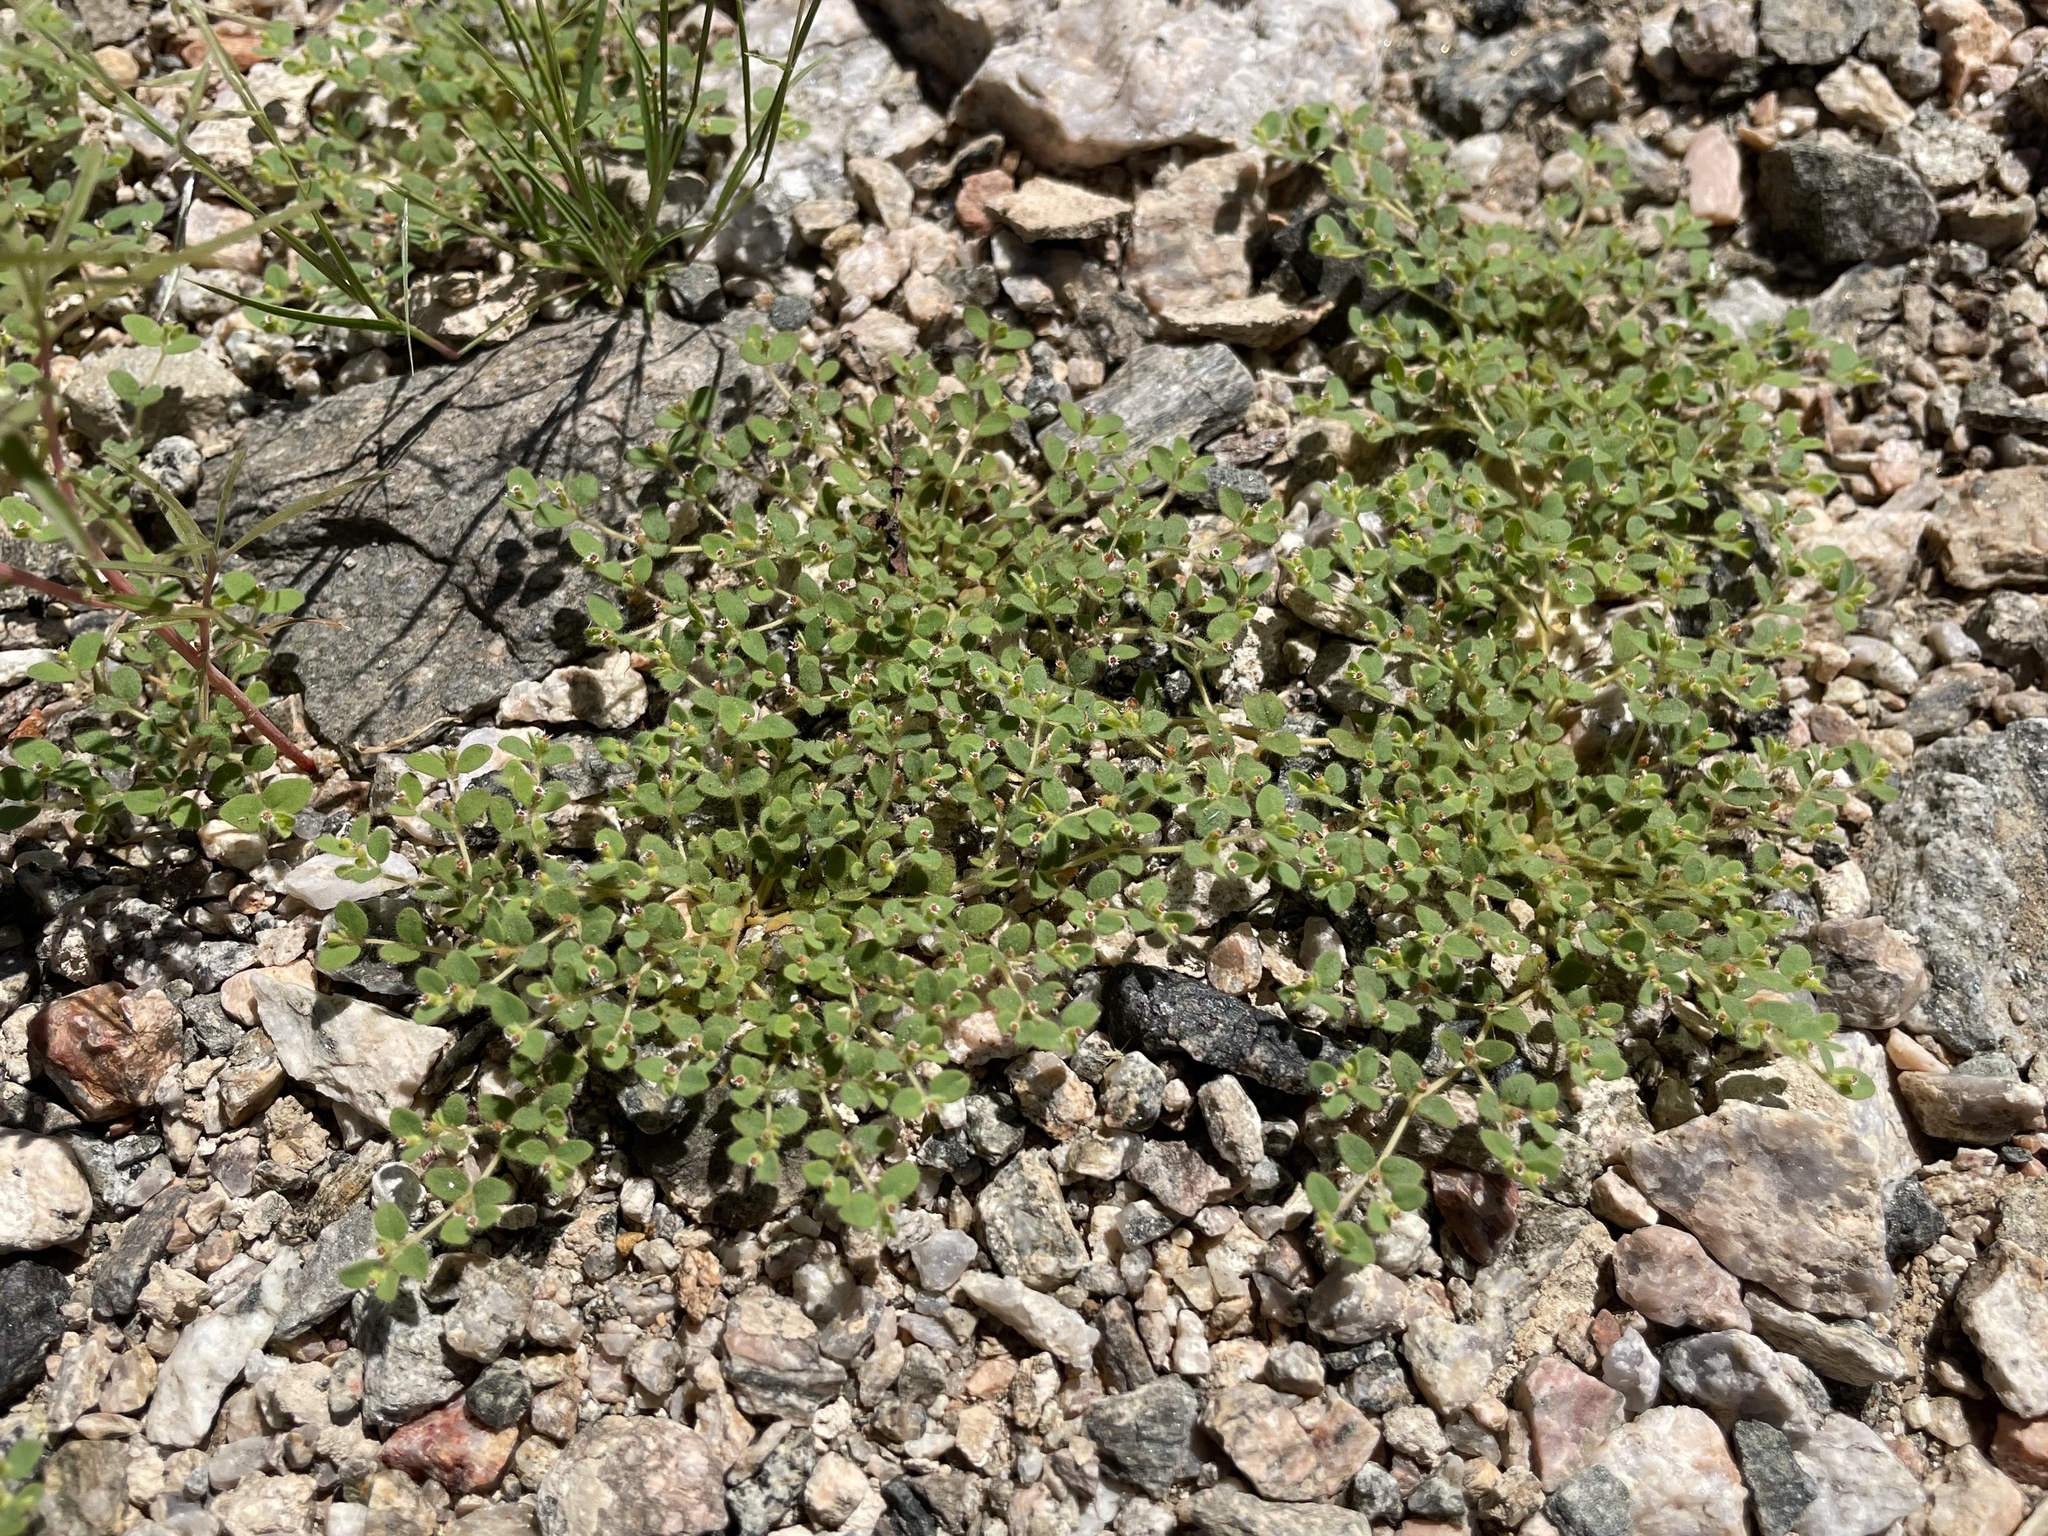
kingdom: Plantae
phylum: Tracheophyta
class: Magnoliopsida
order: Malpighiales
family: Euphorbiaceae
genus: Euphorbia
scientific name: Euphorbia setiloba
